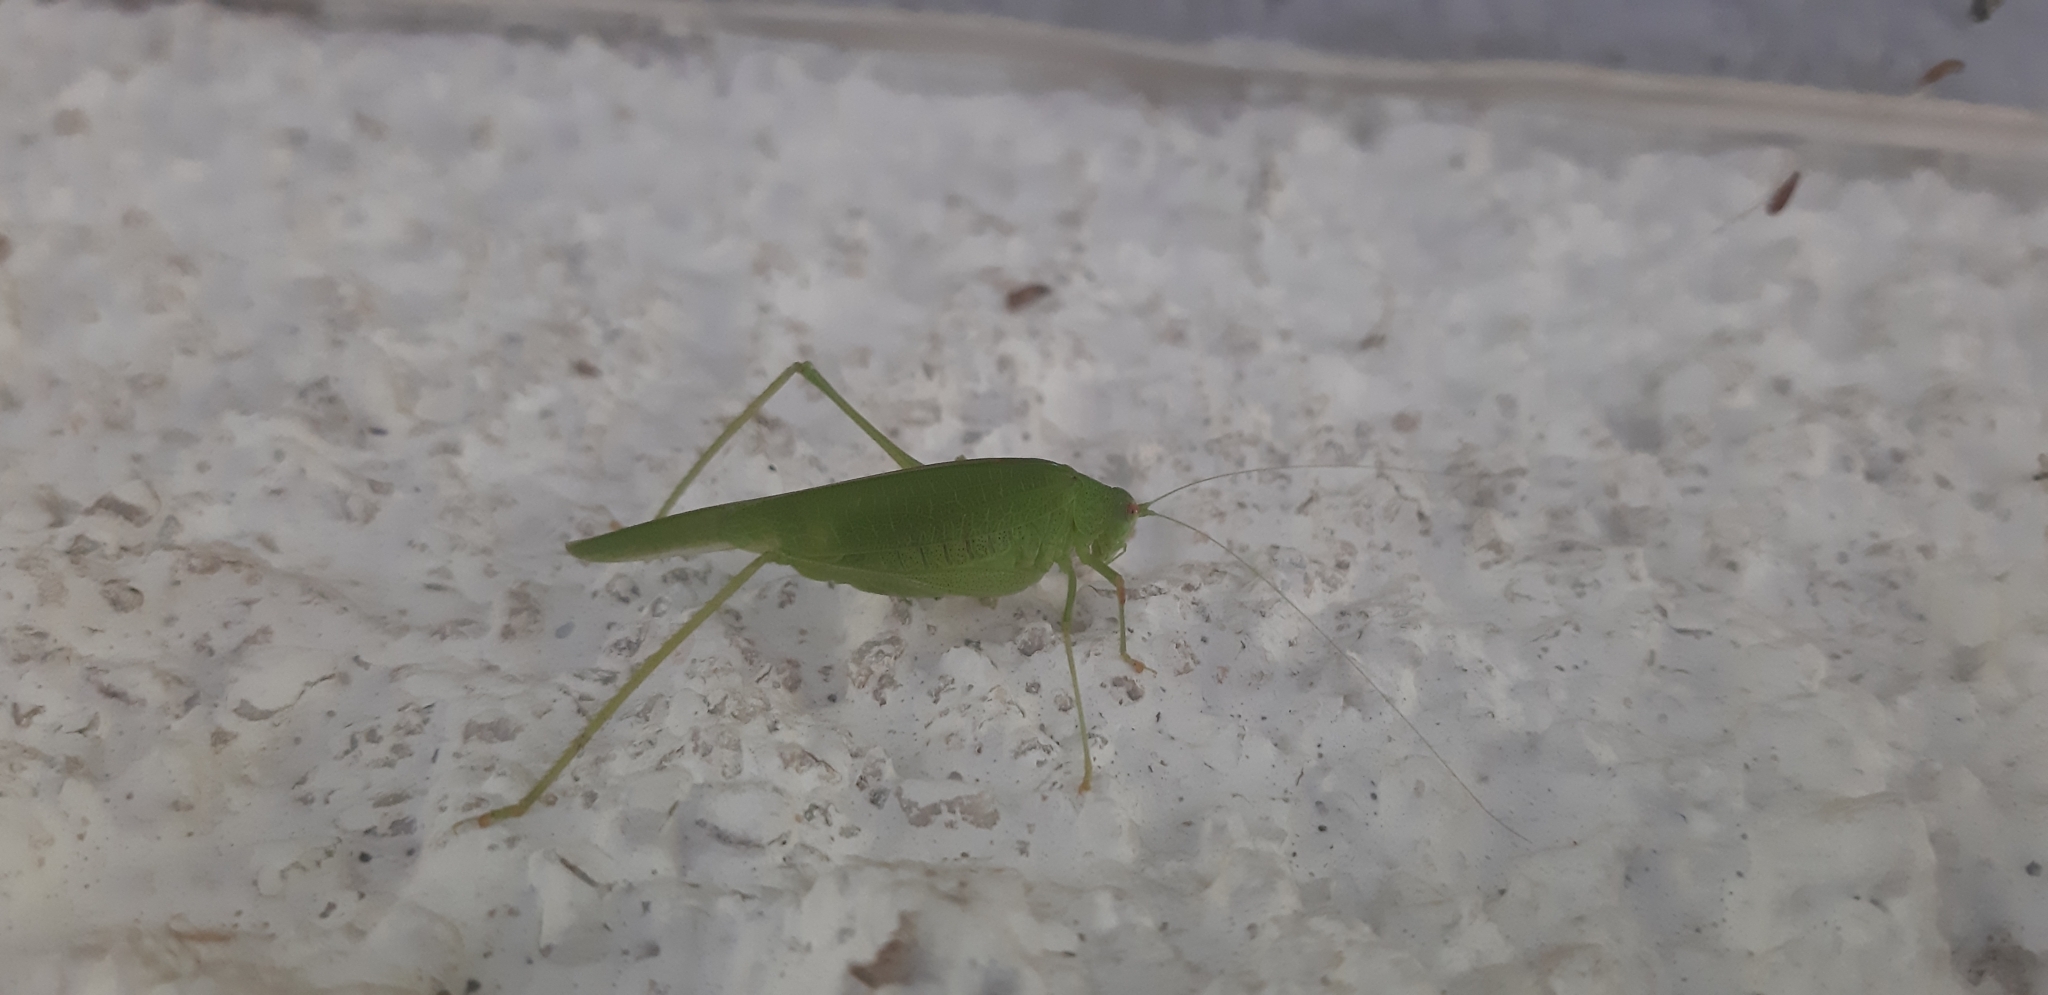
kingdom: Animalia
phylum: Arthropoda
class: Insecta
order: Orthoptera
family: Tettigoniidae
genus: Phaneroptera
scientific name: Phaneroptera nana
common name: Southern sickle bush-cricket
